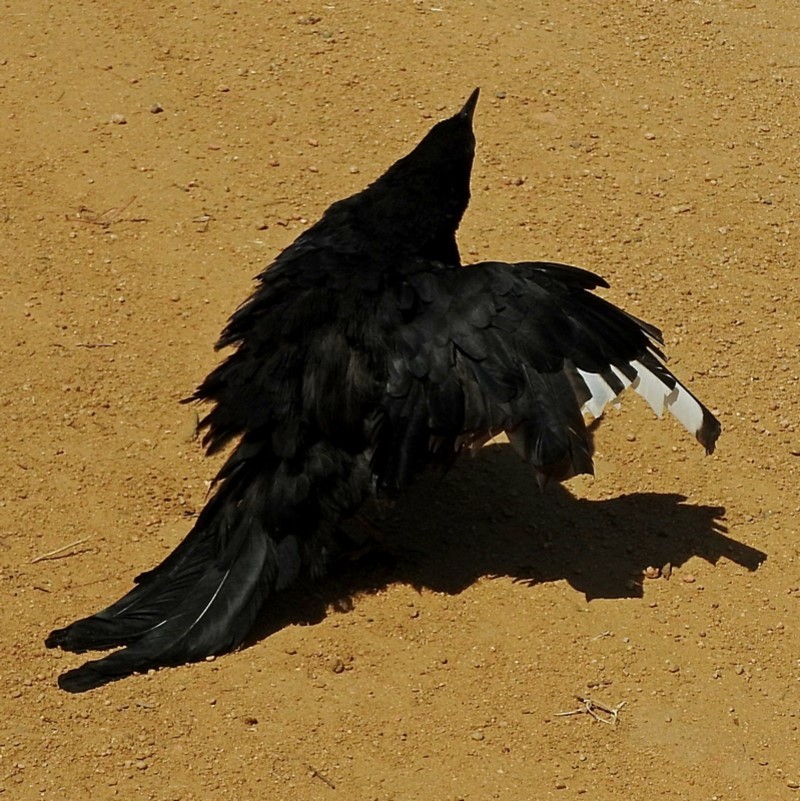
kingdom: Animalia
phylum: Chordata
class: Aves
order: Passeriformes
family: Corcoracidae
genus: Corcorax
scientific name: Corcorax melanoramphos
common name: White-winged chough
